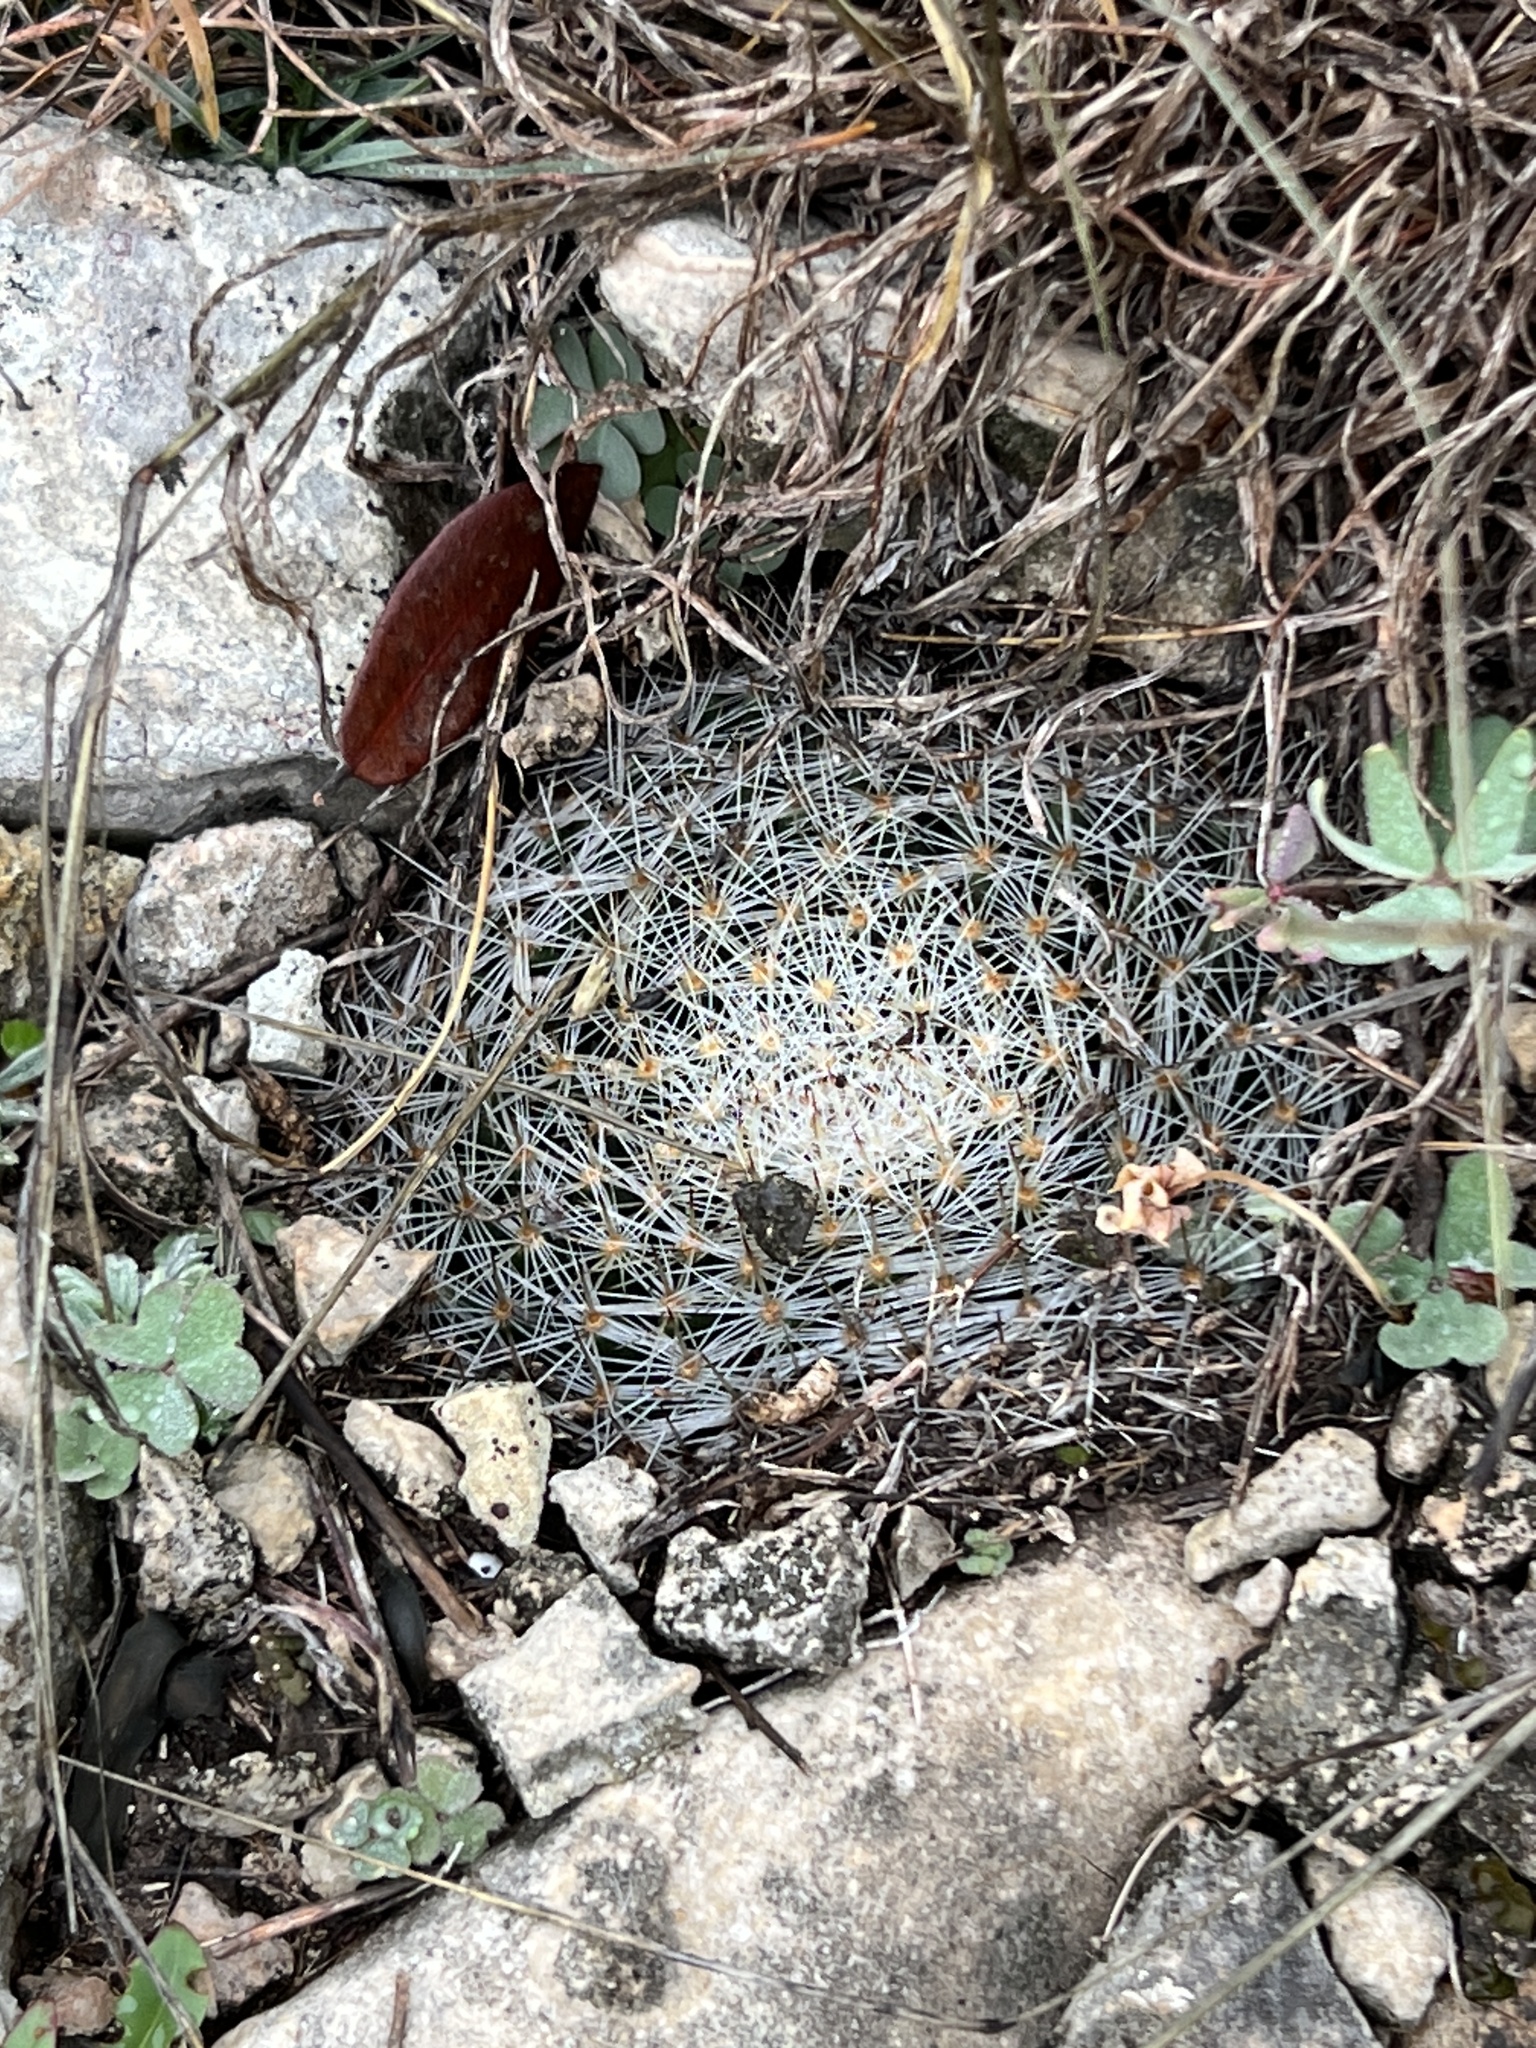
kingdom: Plantae
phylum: Tracheophyta
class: Magnoliopsida
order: Caryophyllales
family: Cactaceae
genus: Mammillaria
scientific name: Mammillaria heyderi
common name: Little nipple cactus
